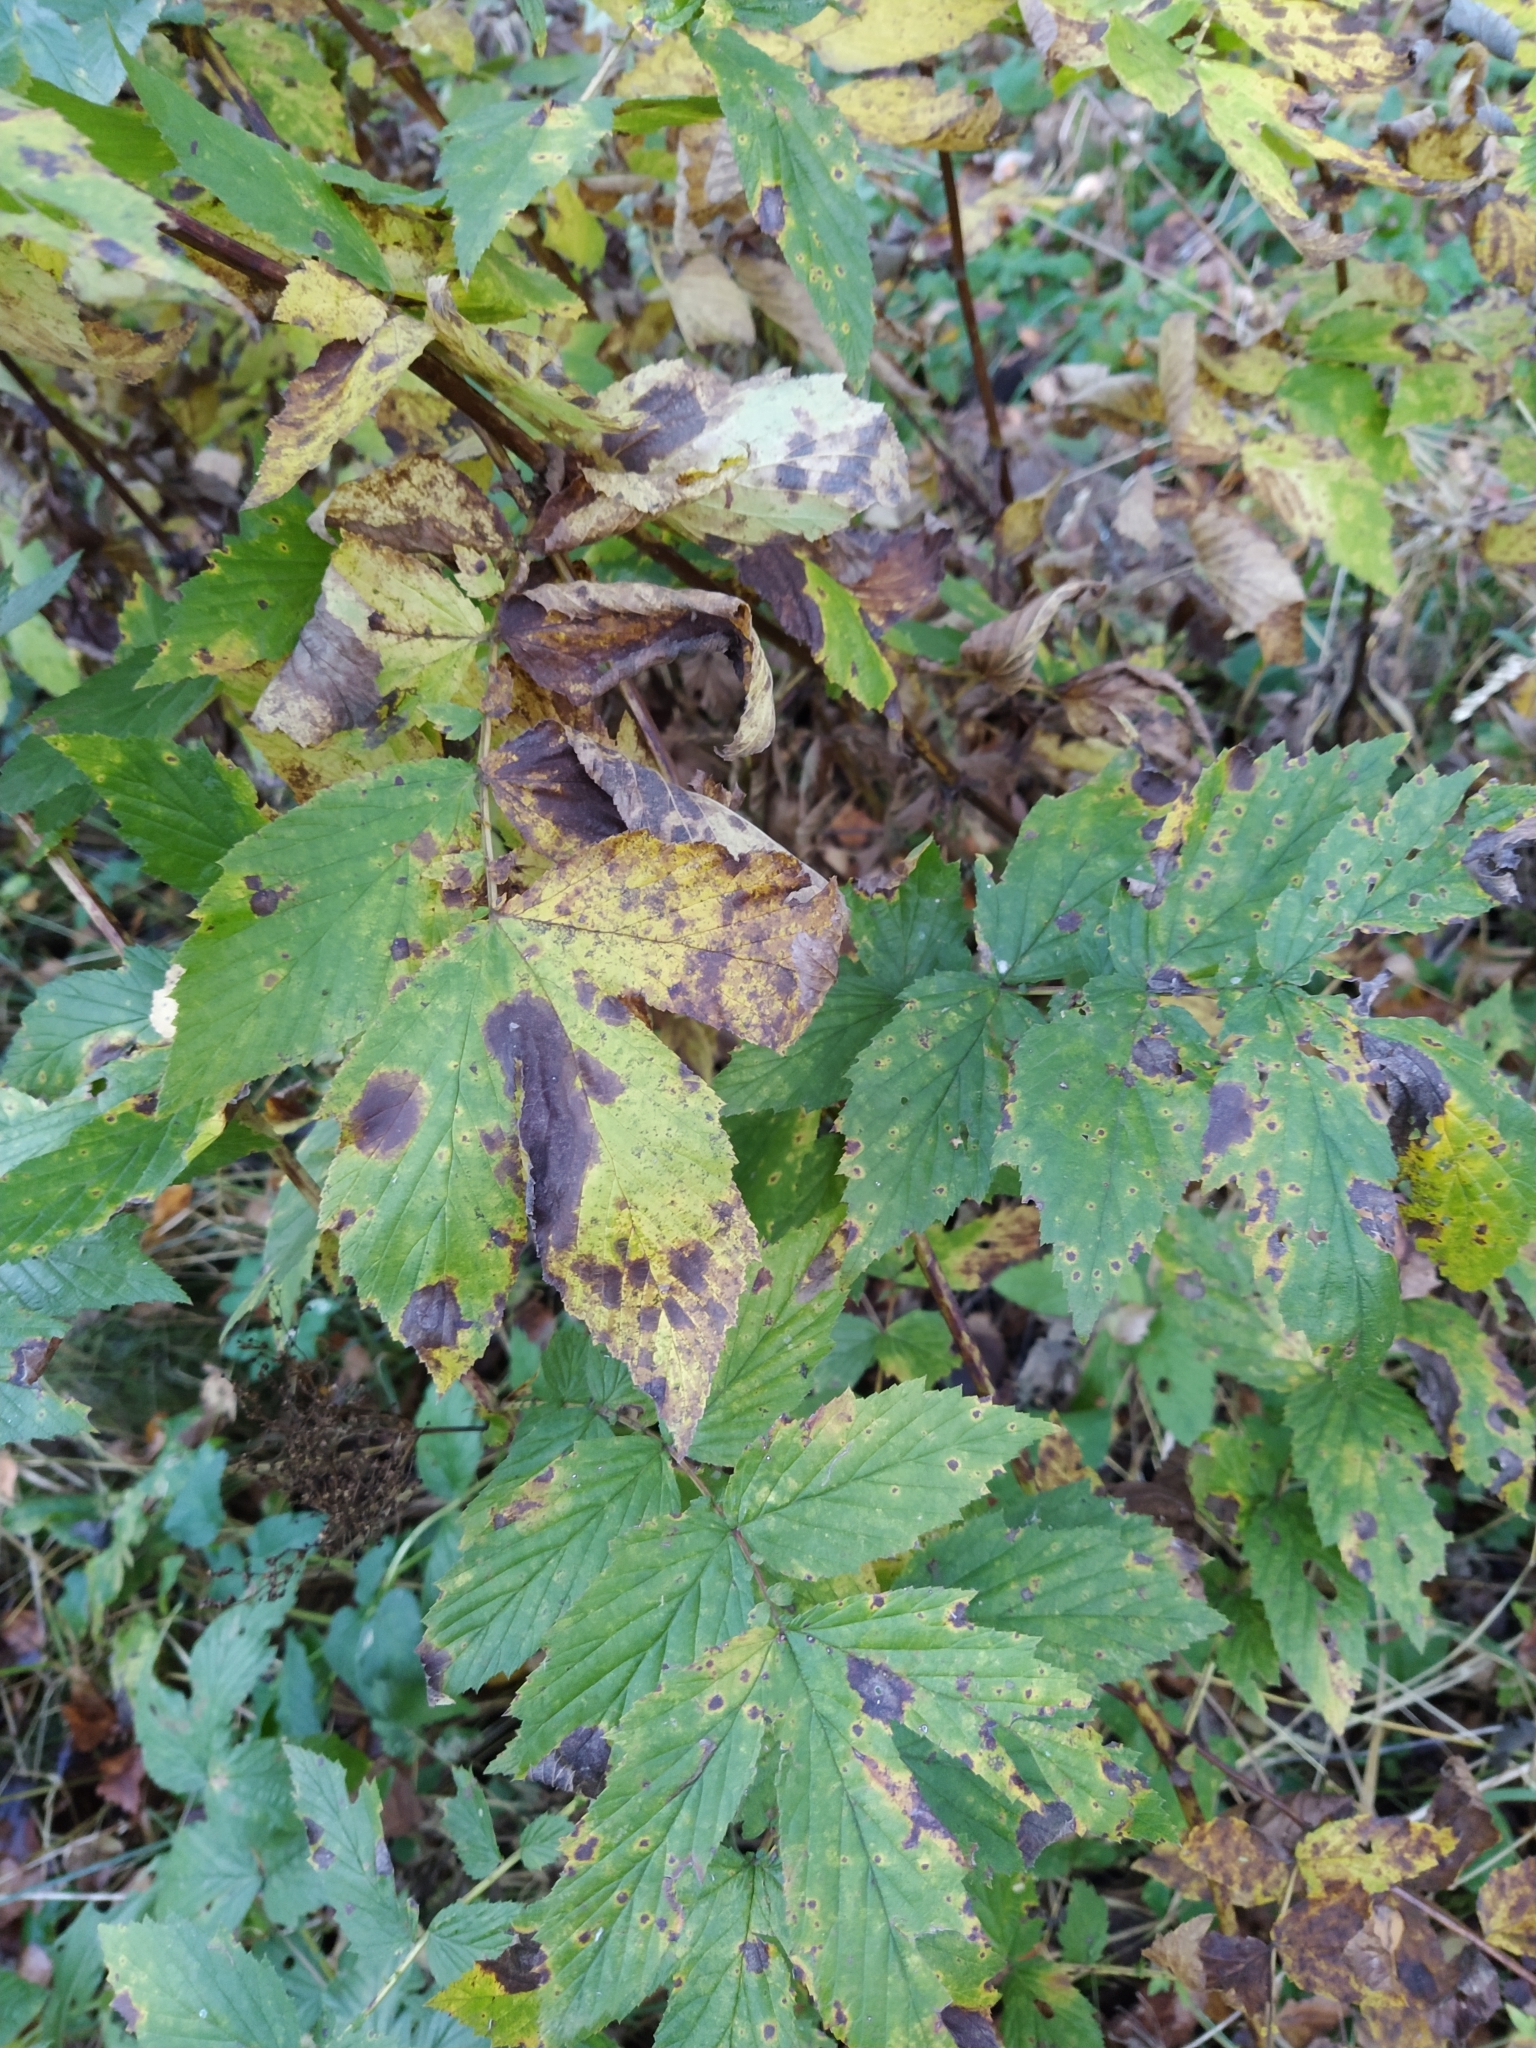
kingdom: Plantae
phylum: Tracheophyta
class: Magnoliopsida
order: Rosales
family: Rosaceae
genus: Filipendula
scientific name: Filipendula ulmaria
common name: Meadowsweet
